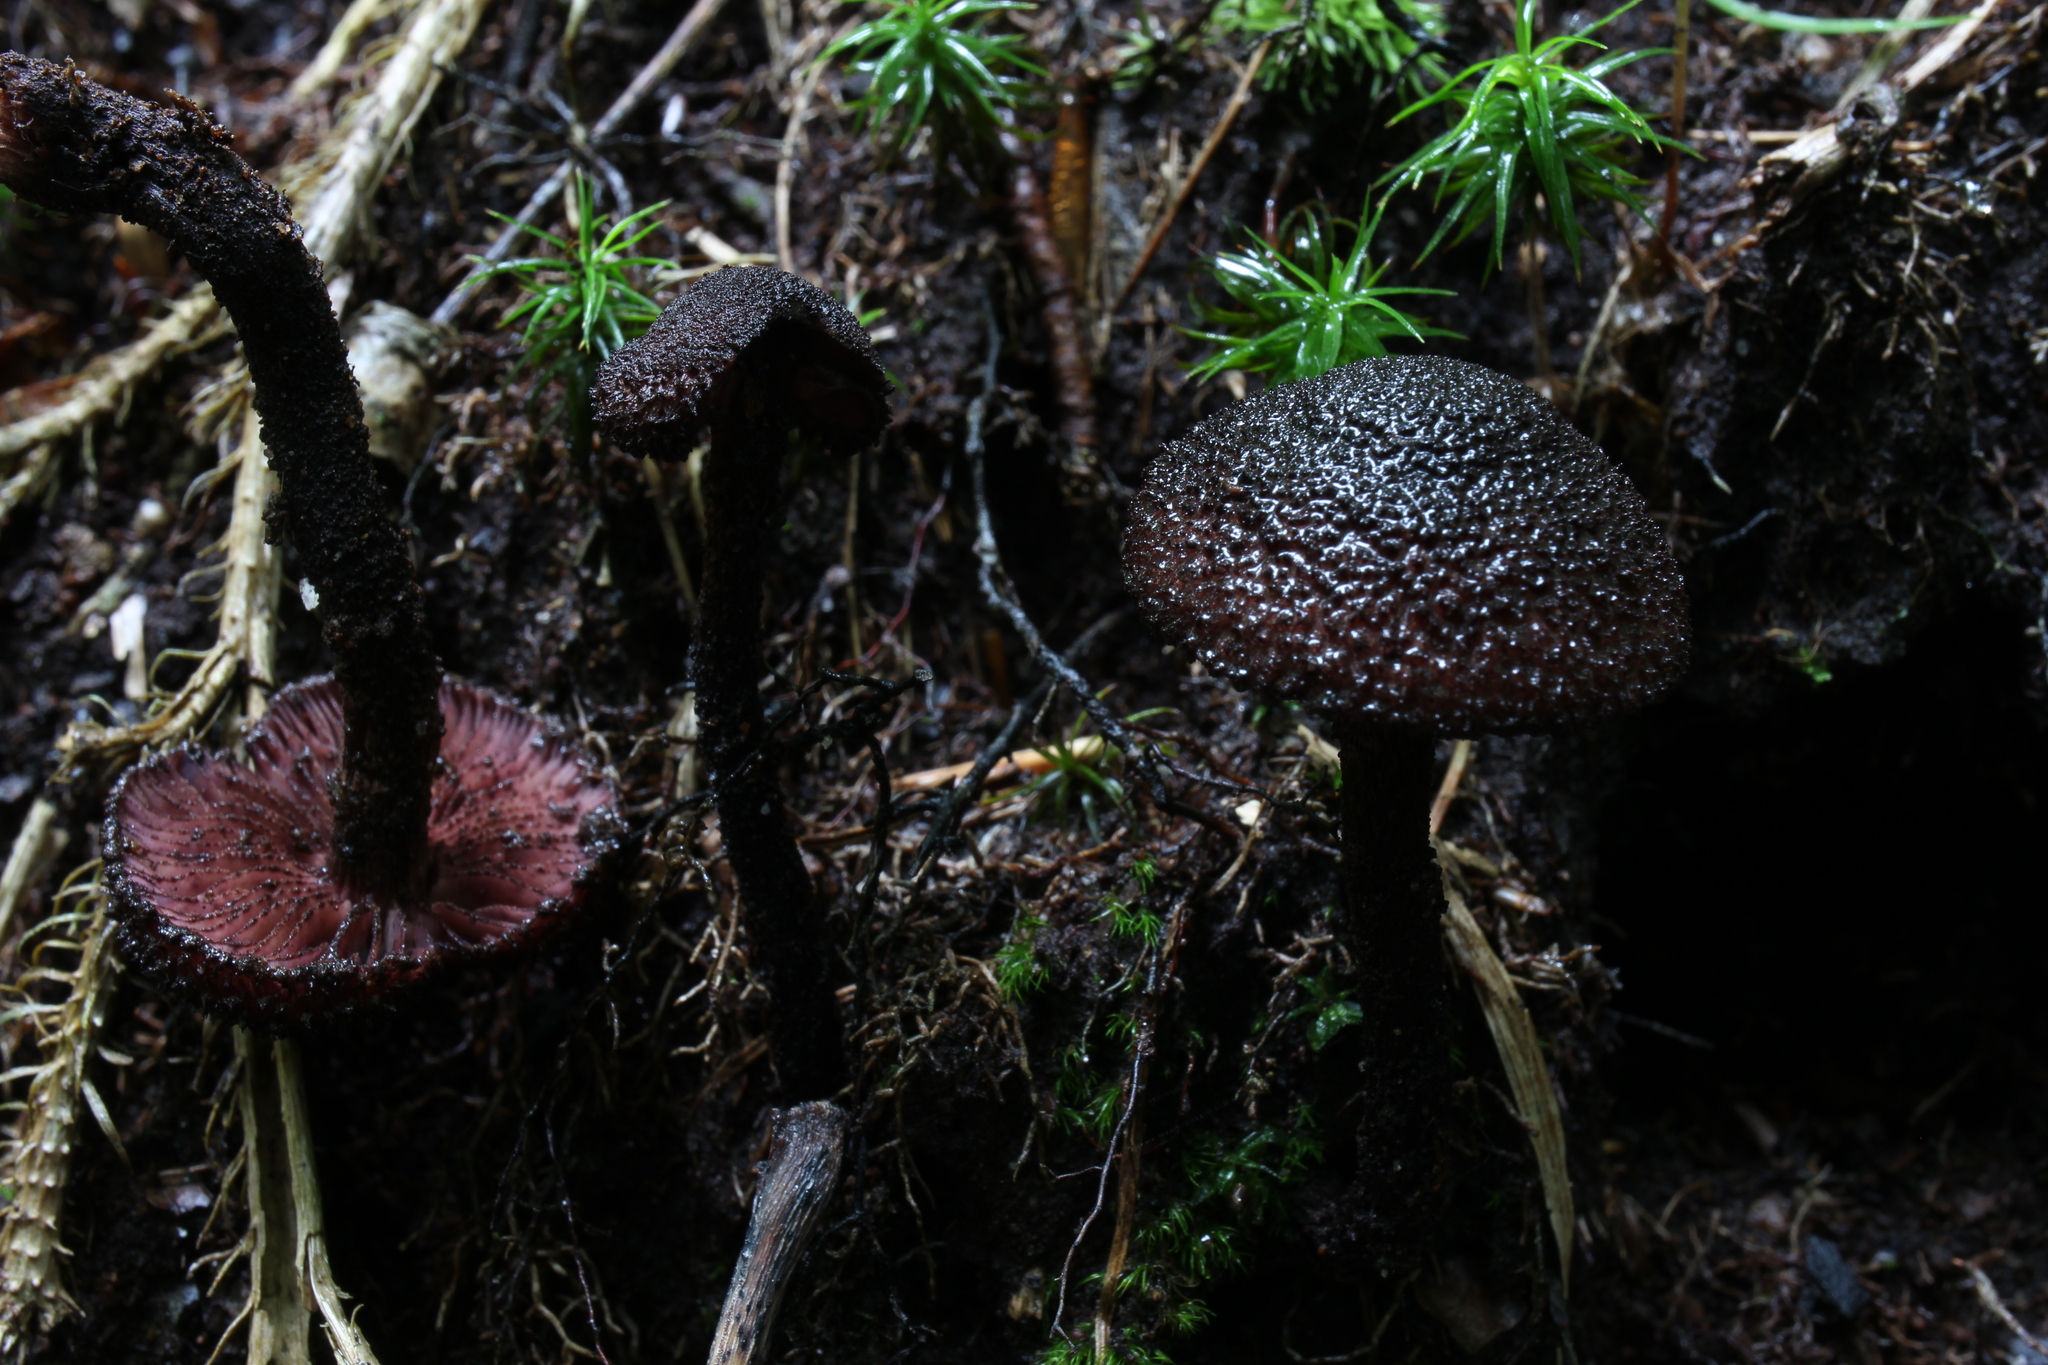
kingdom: Fungi
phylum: Basidiomycota
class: Agaricomycetes
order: Agaricales
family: Inocybaceae
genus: Inocybe
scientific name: Inocybe tahquamenonensis
